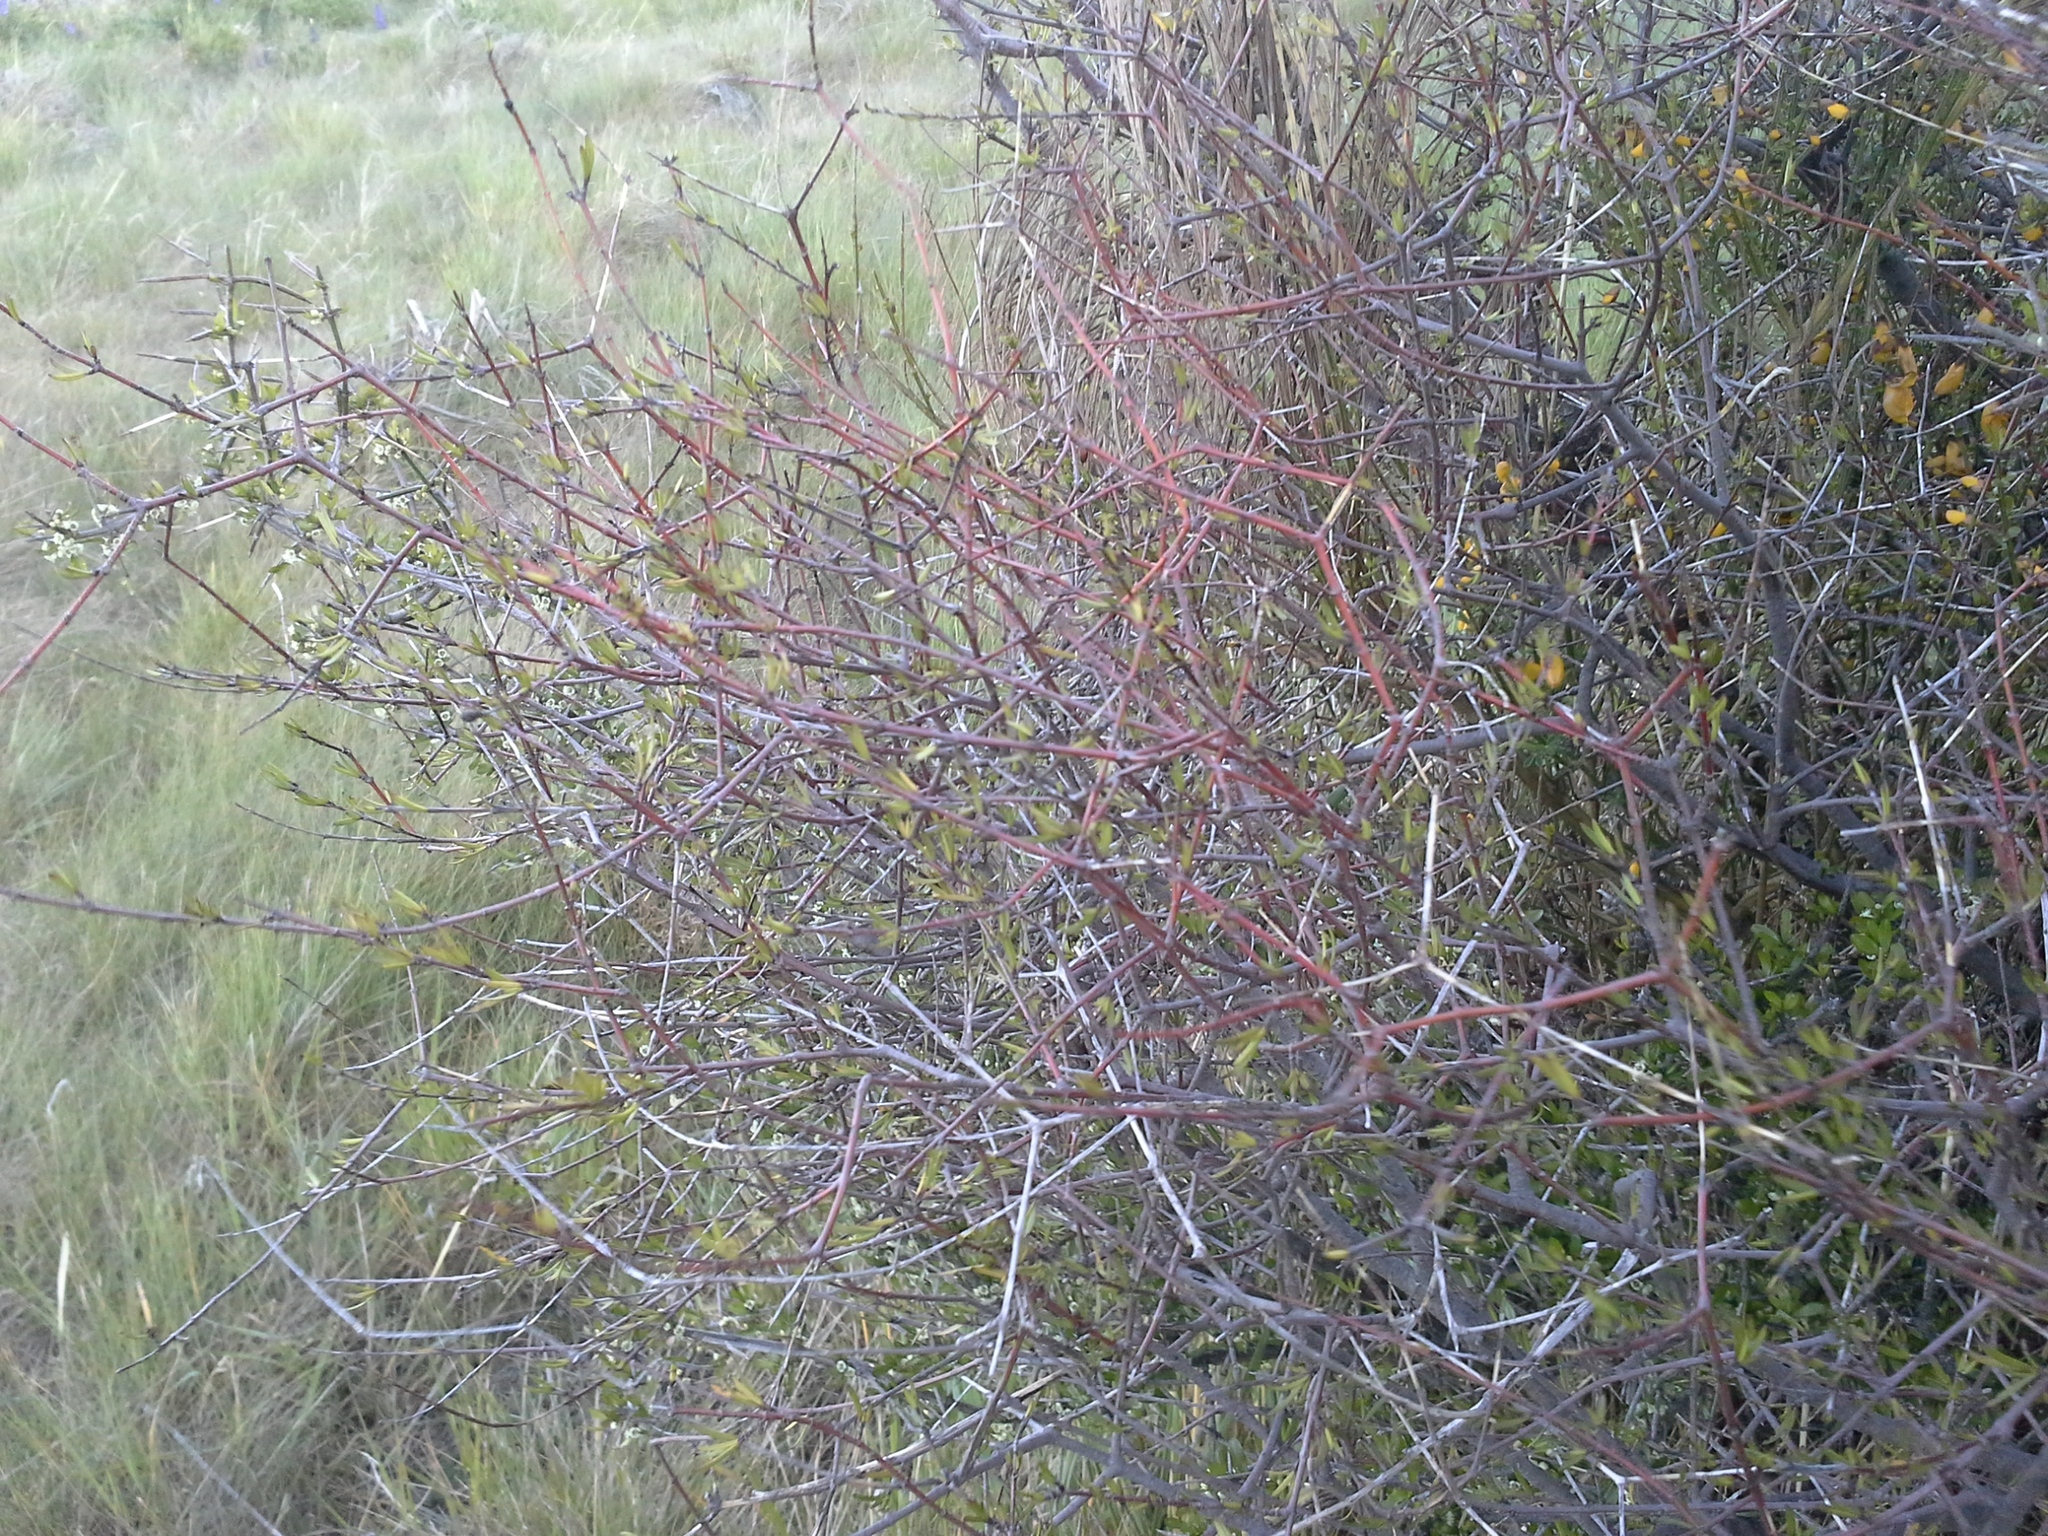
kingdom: Plantae
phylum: Tracheophyta
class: Magnoliopsida
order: Gentianales
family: Rubiaceae
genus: Coprosma
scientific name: Coprosma intertexta
